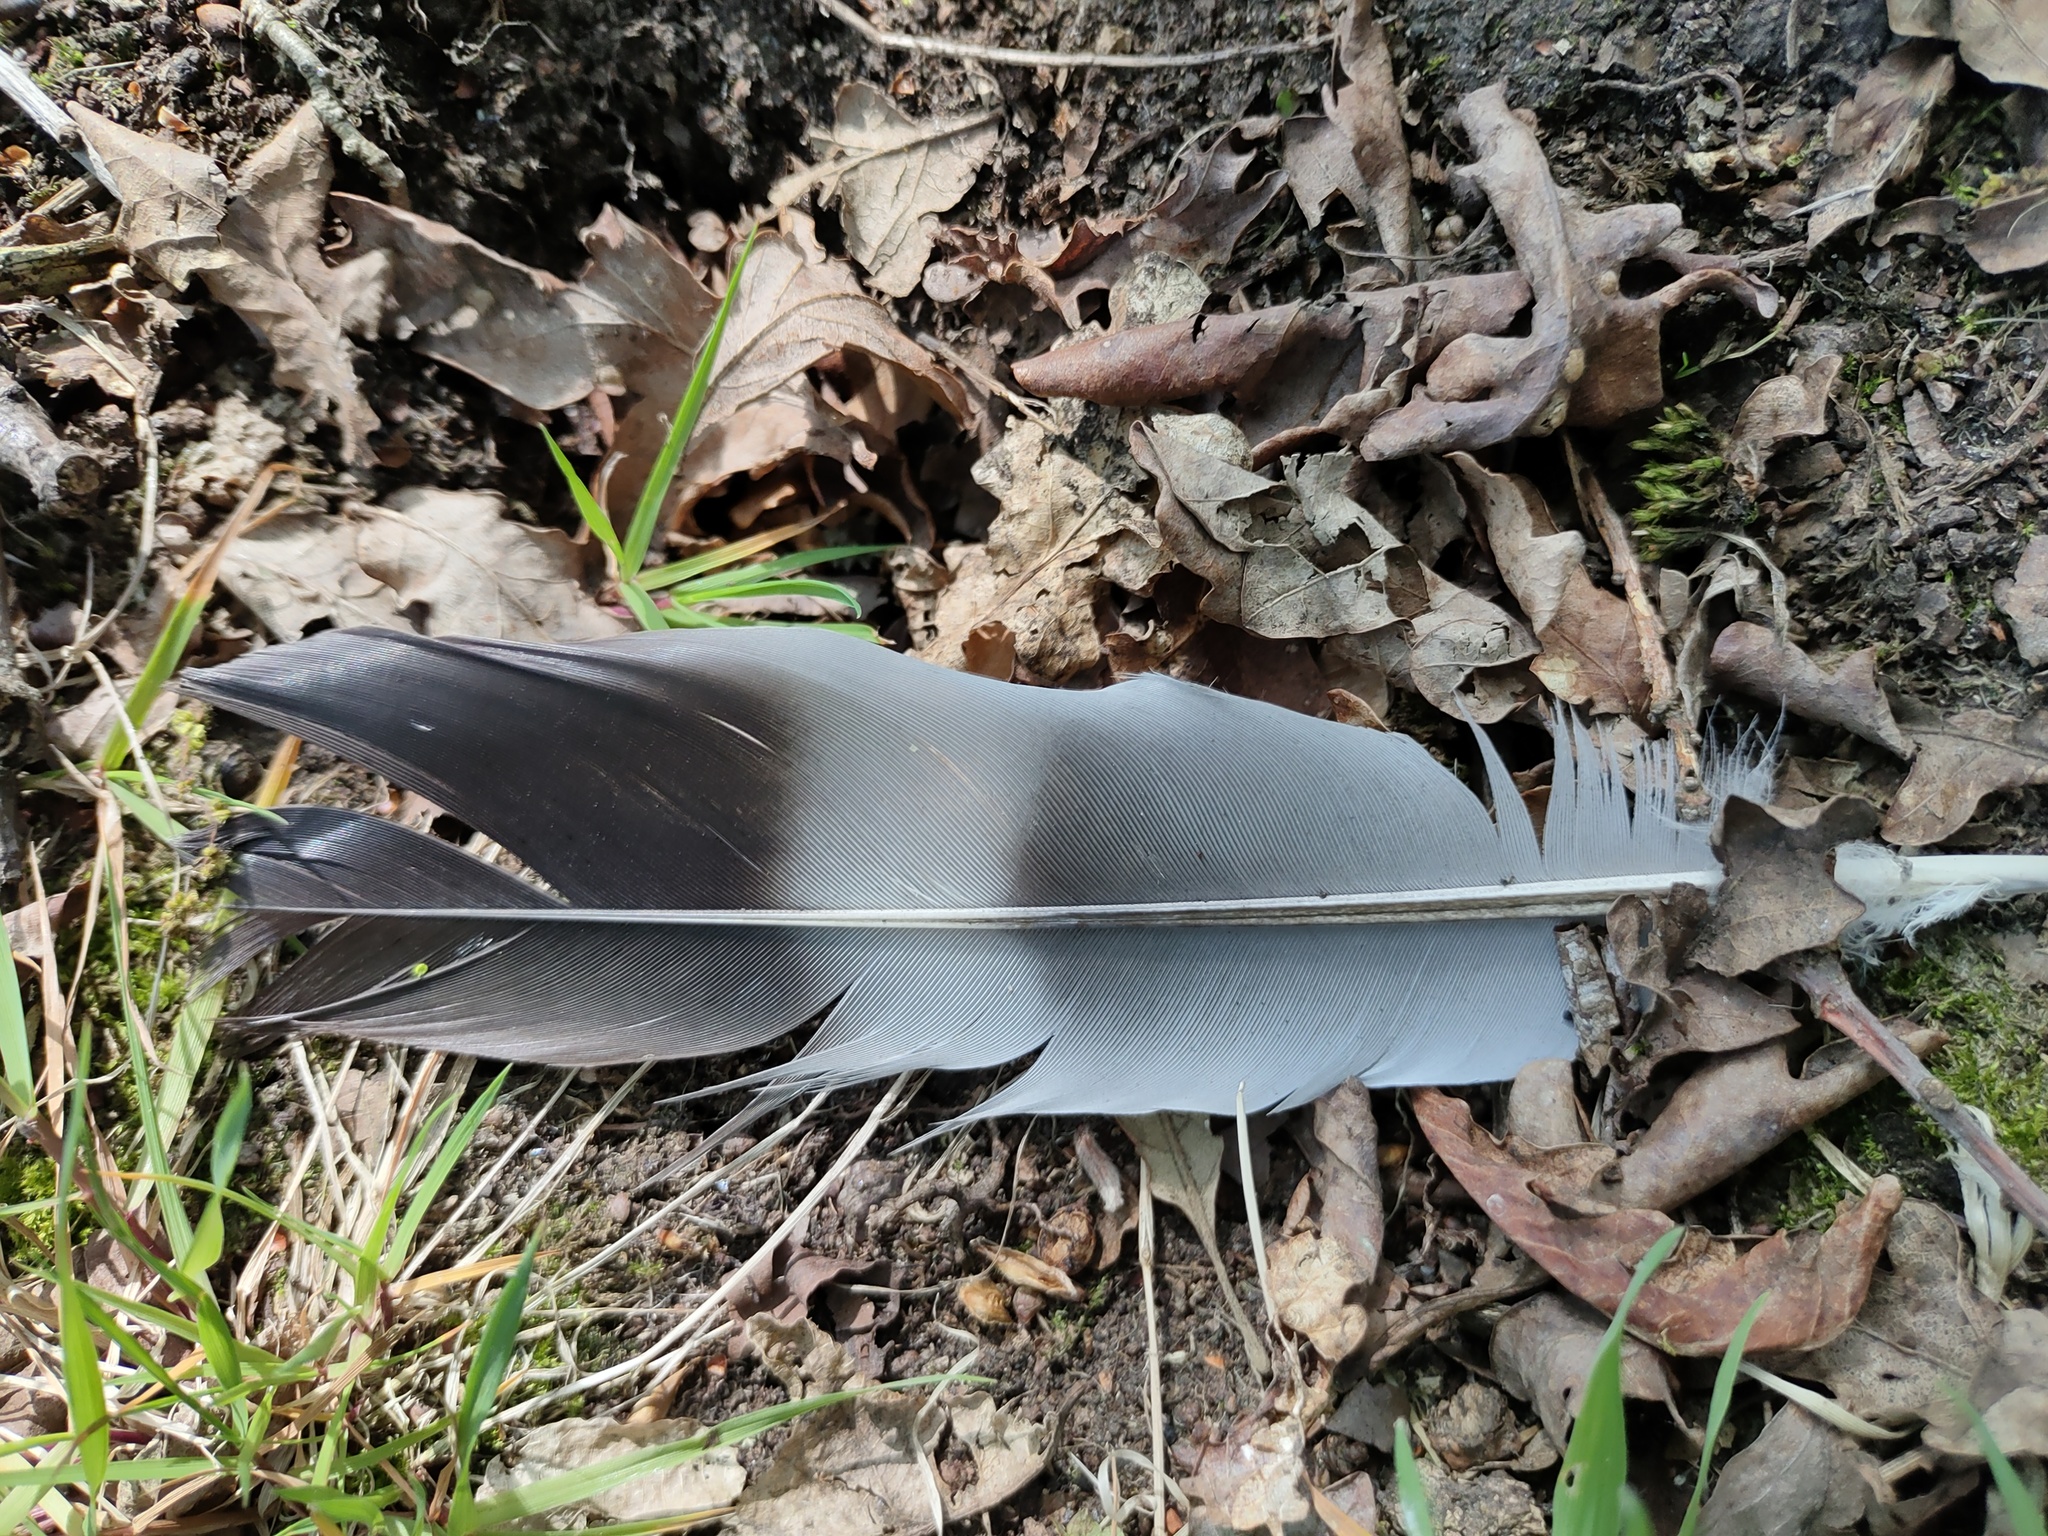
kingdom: Animalia
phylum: Chordata
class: Aves
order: Columbiformes
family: Columbidae
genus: Columba
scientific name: Columba palumbus
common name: Common wood pigeon
